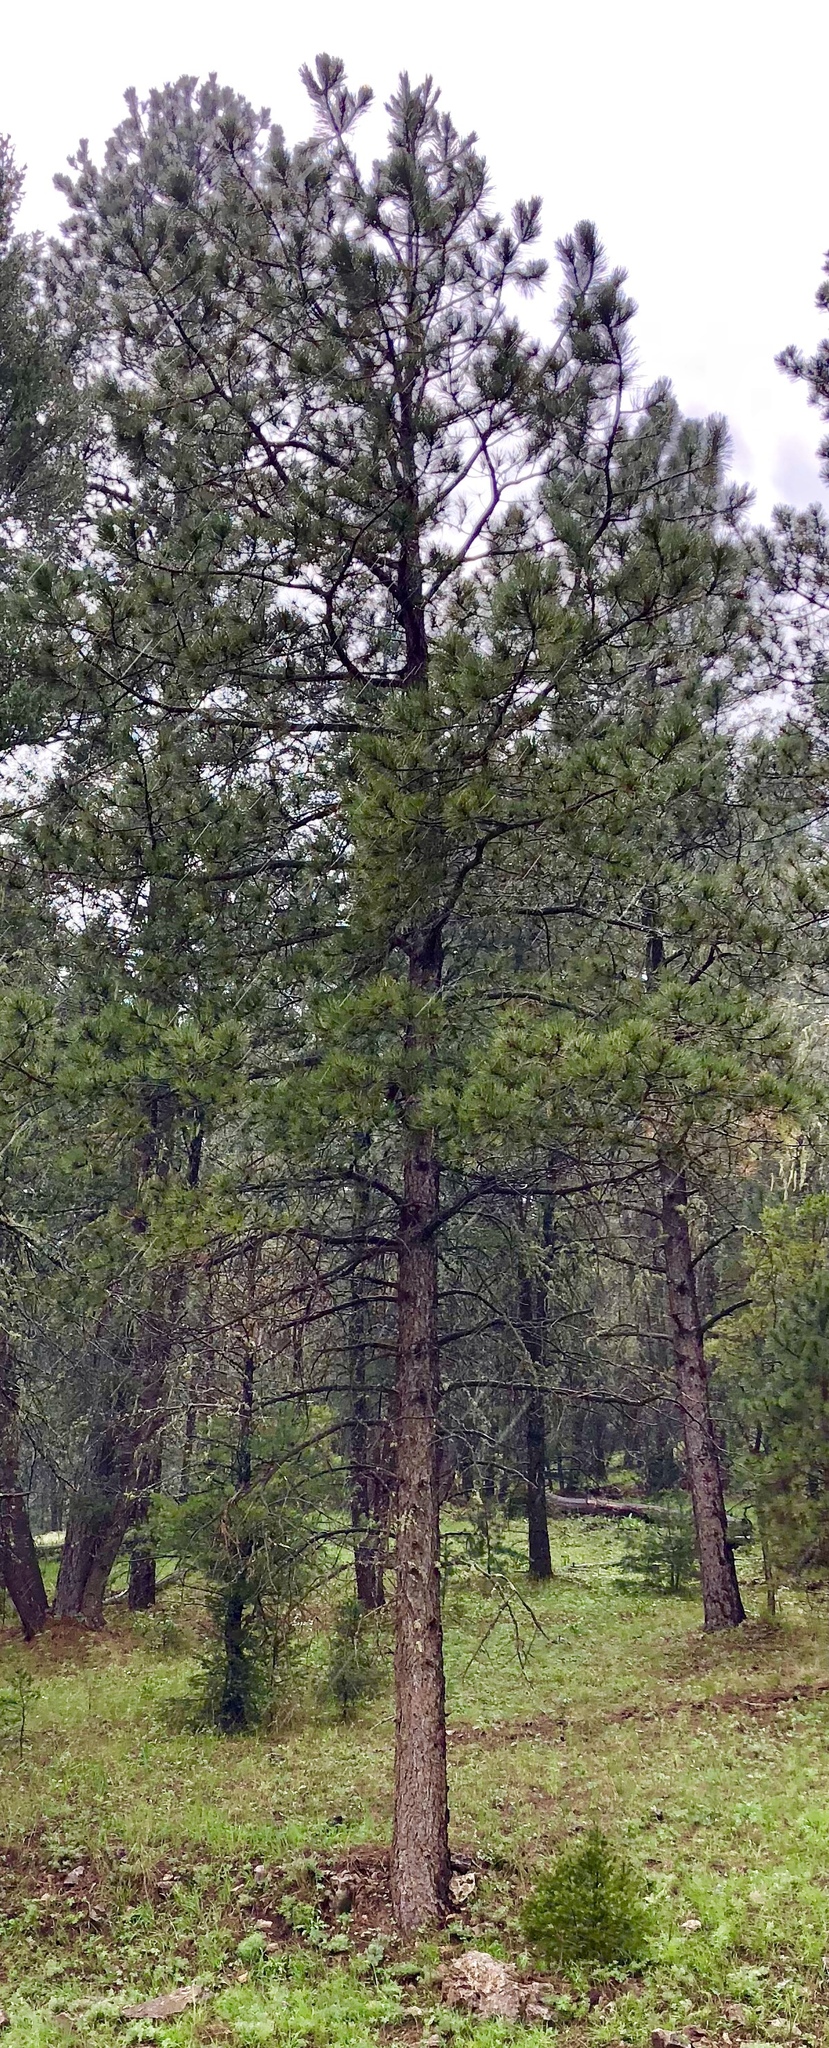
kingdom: Plantae
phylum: Tracheophyta
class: Pinopsida
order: Pinales
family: Pinaceae
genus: Pinus
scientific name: Pinus strobiformis
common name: Southwestern white pine
